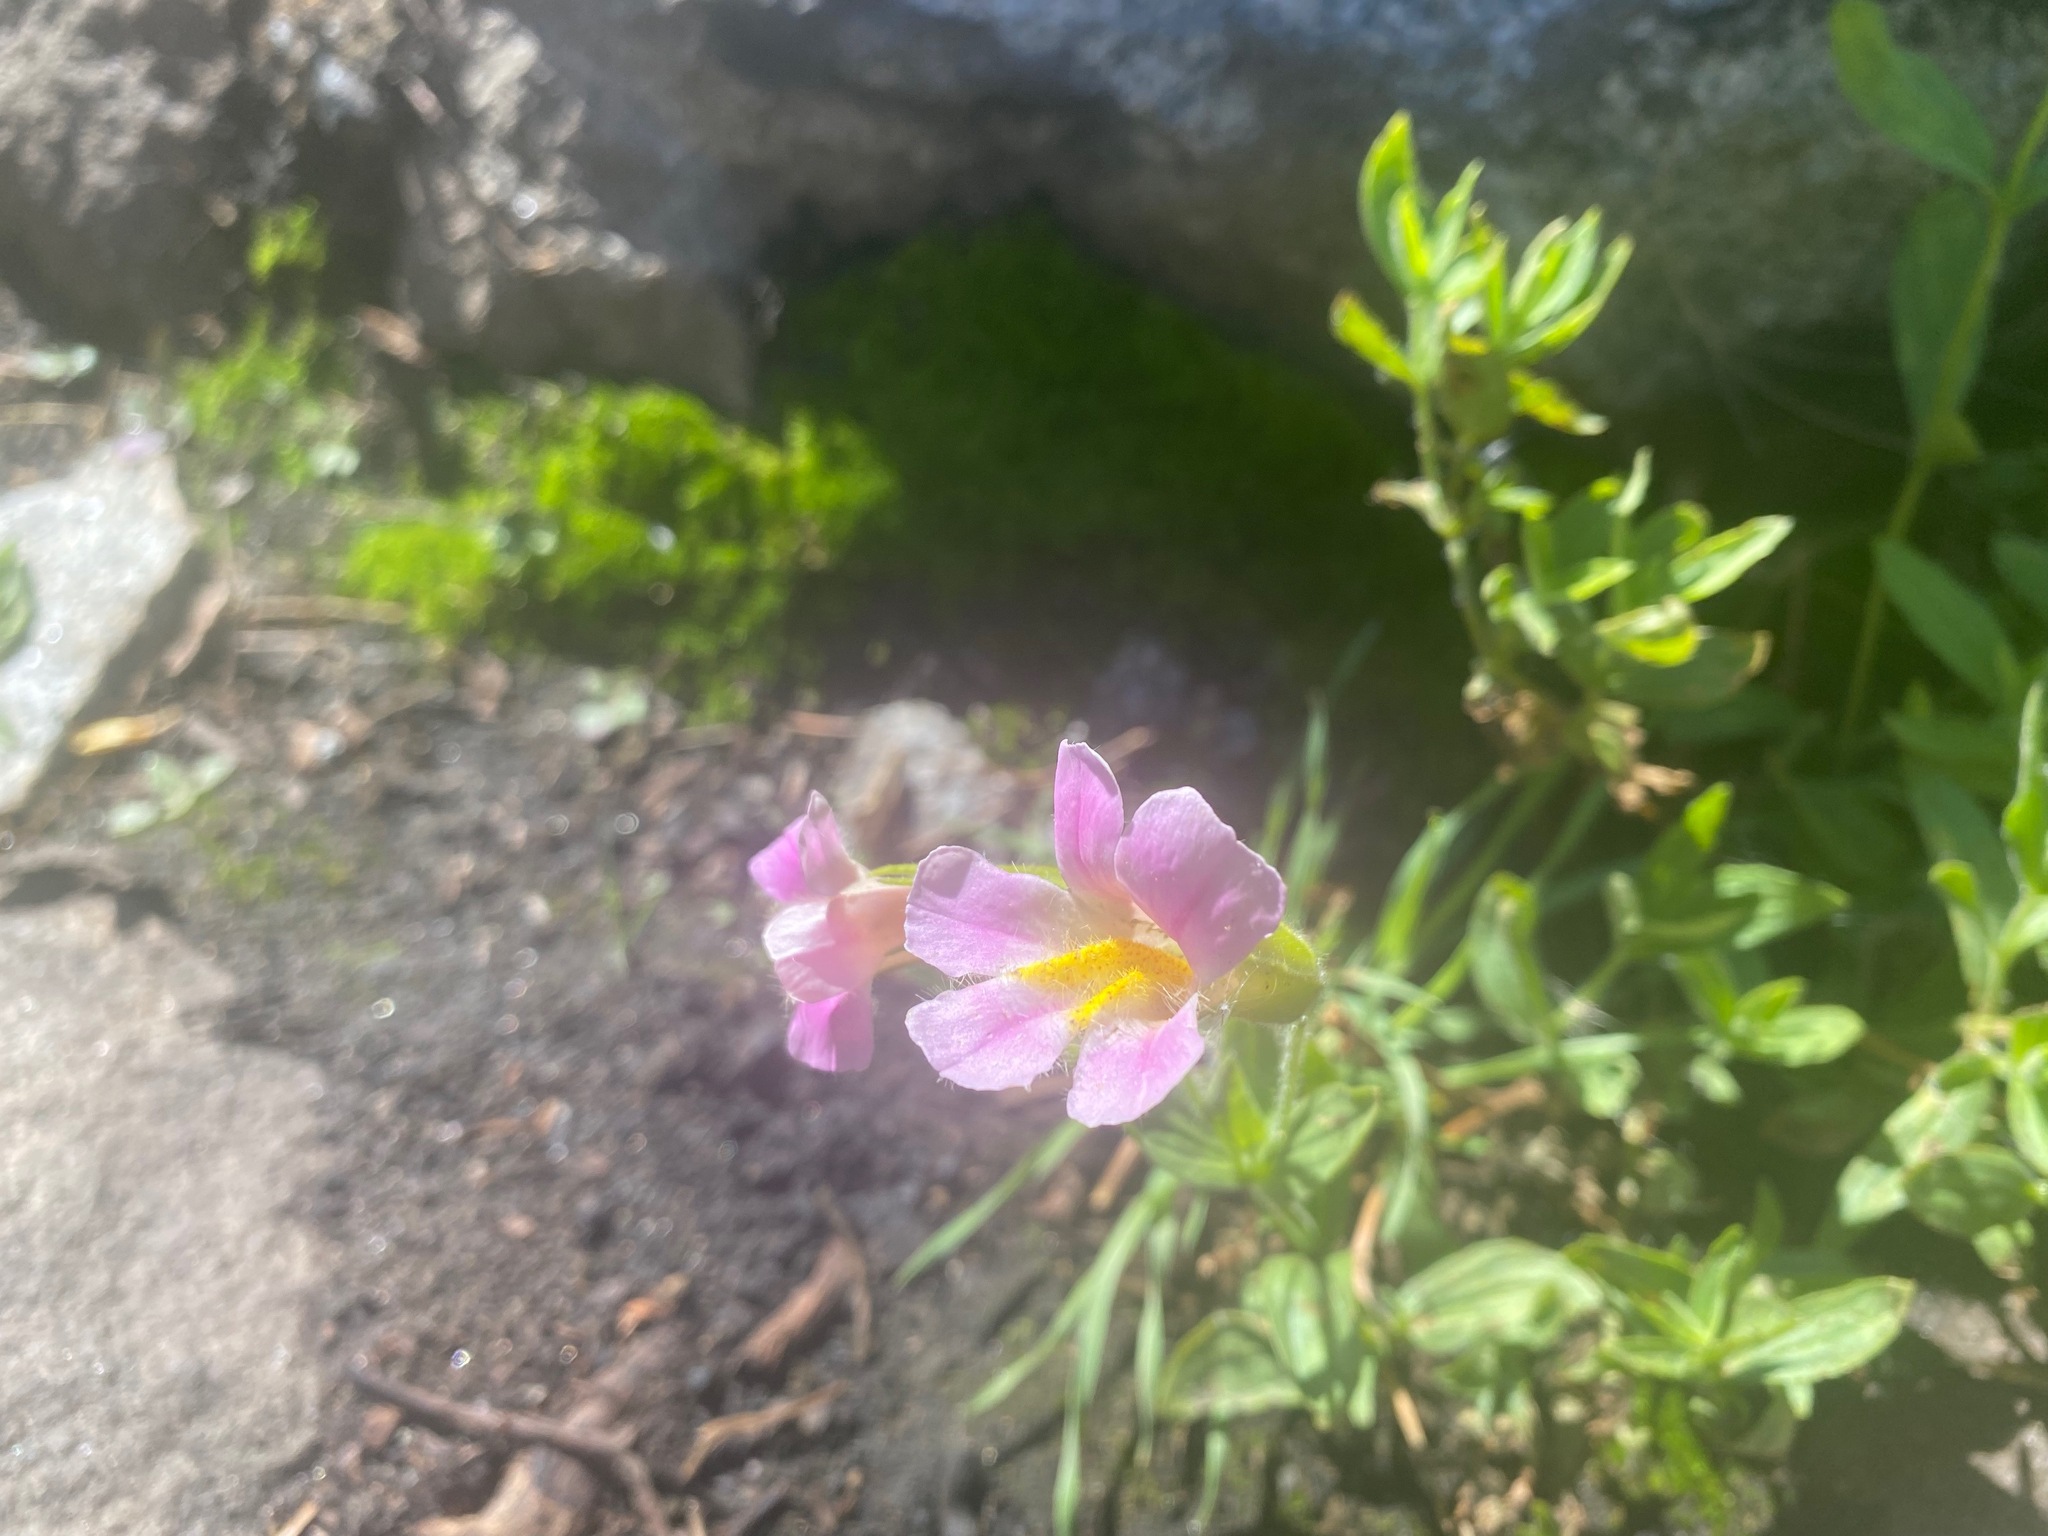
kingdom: Plantae
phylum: Tracheophyta
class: Magnoliopsida
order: Lamiales
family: Phrymaceae
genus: Erythranthe
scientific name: Erythranthe erubescens
